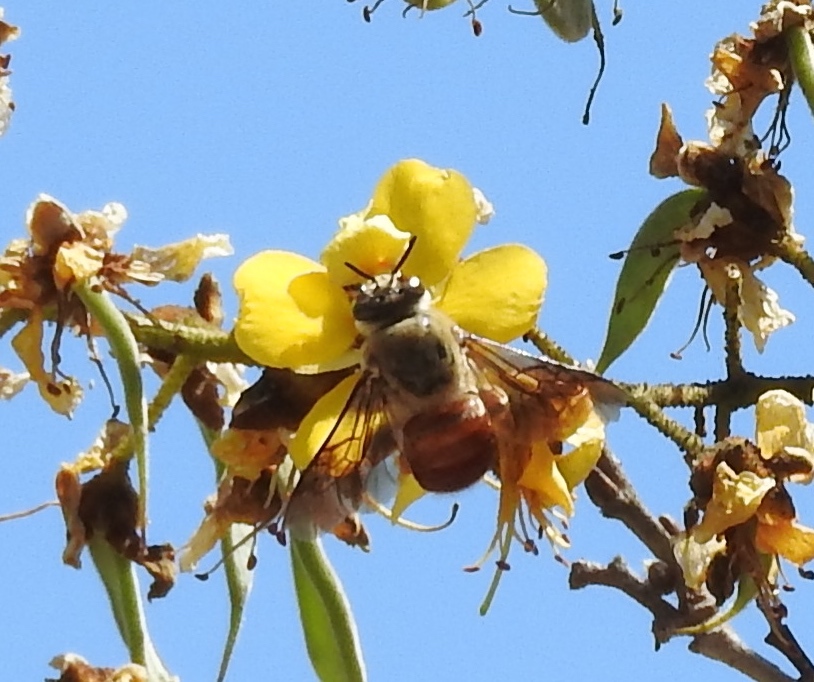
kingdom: Animalia
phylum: Arthropoda
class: Insecta
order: Hymenoptera
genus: Trachina
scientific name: Trachina
